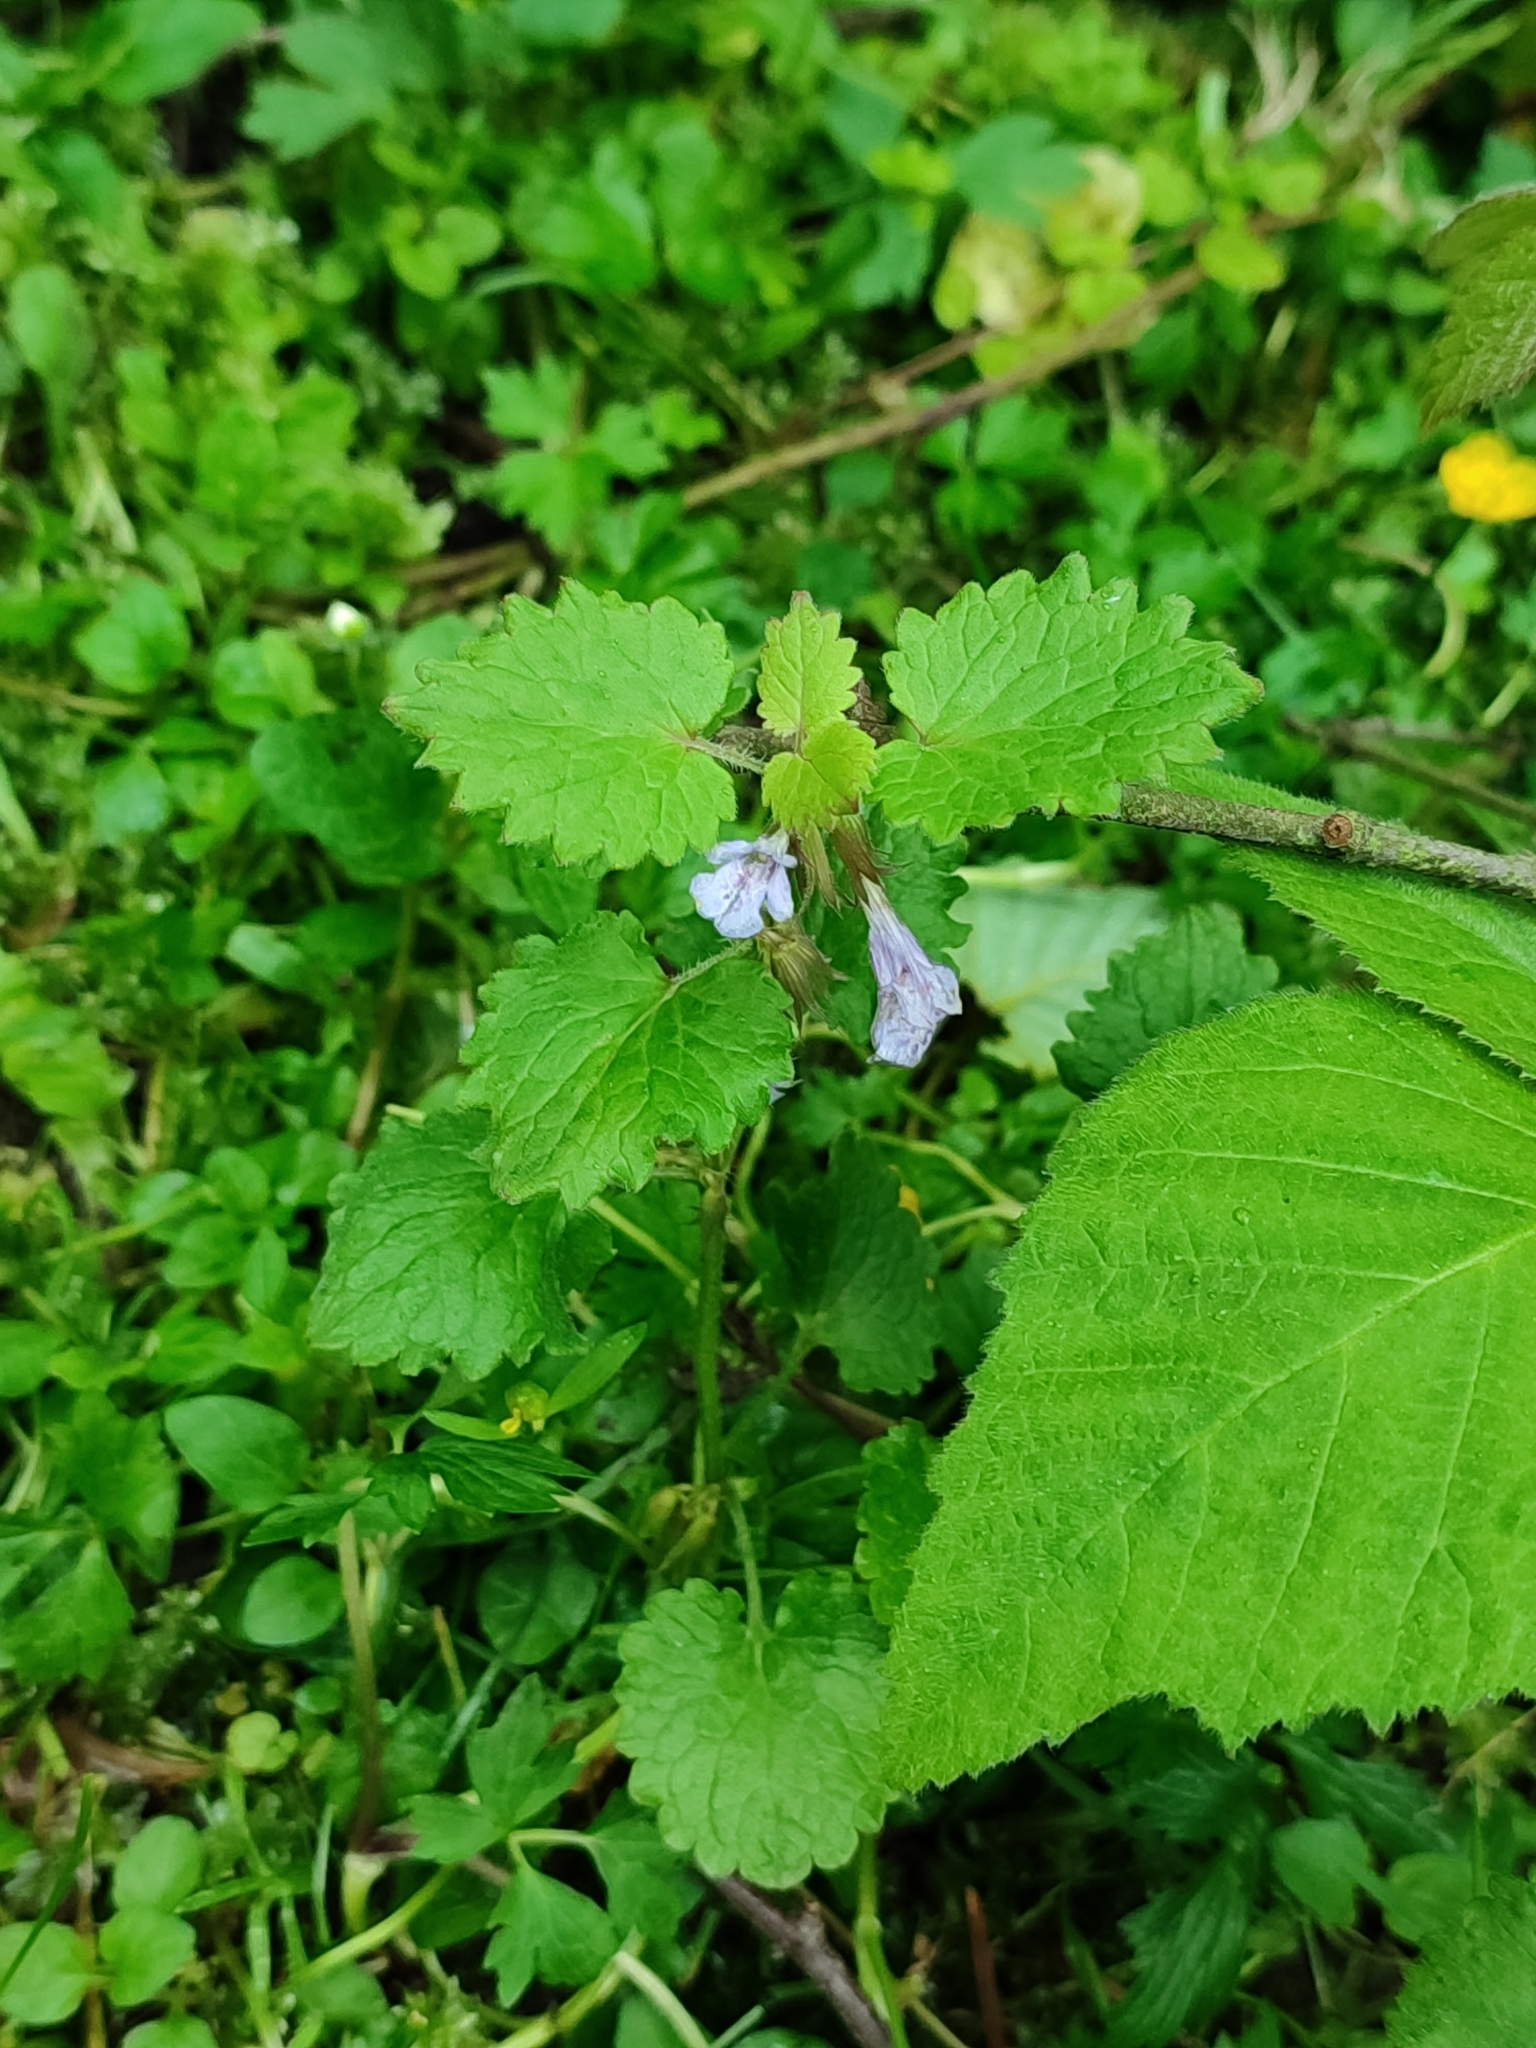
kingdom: Plantae
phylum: Tracheophyta
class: Magnoliopsida
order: Lamiales
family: Lamiaceae
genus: Glechoma
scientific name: Glechoma hederacea
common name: Ground ivy
